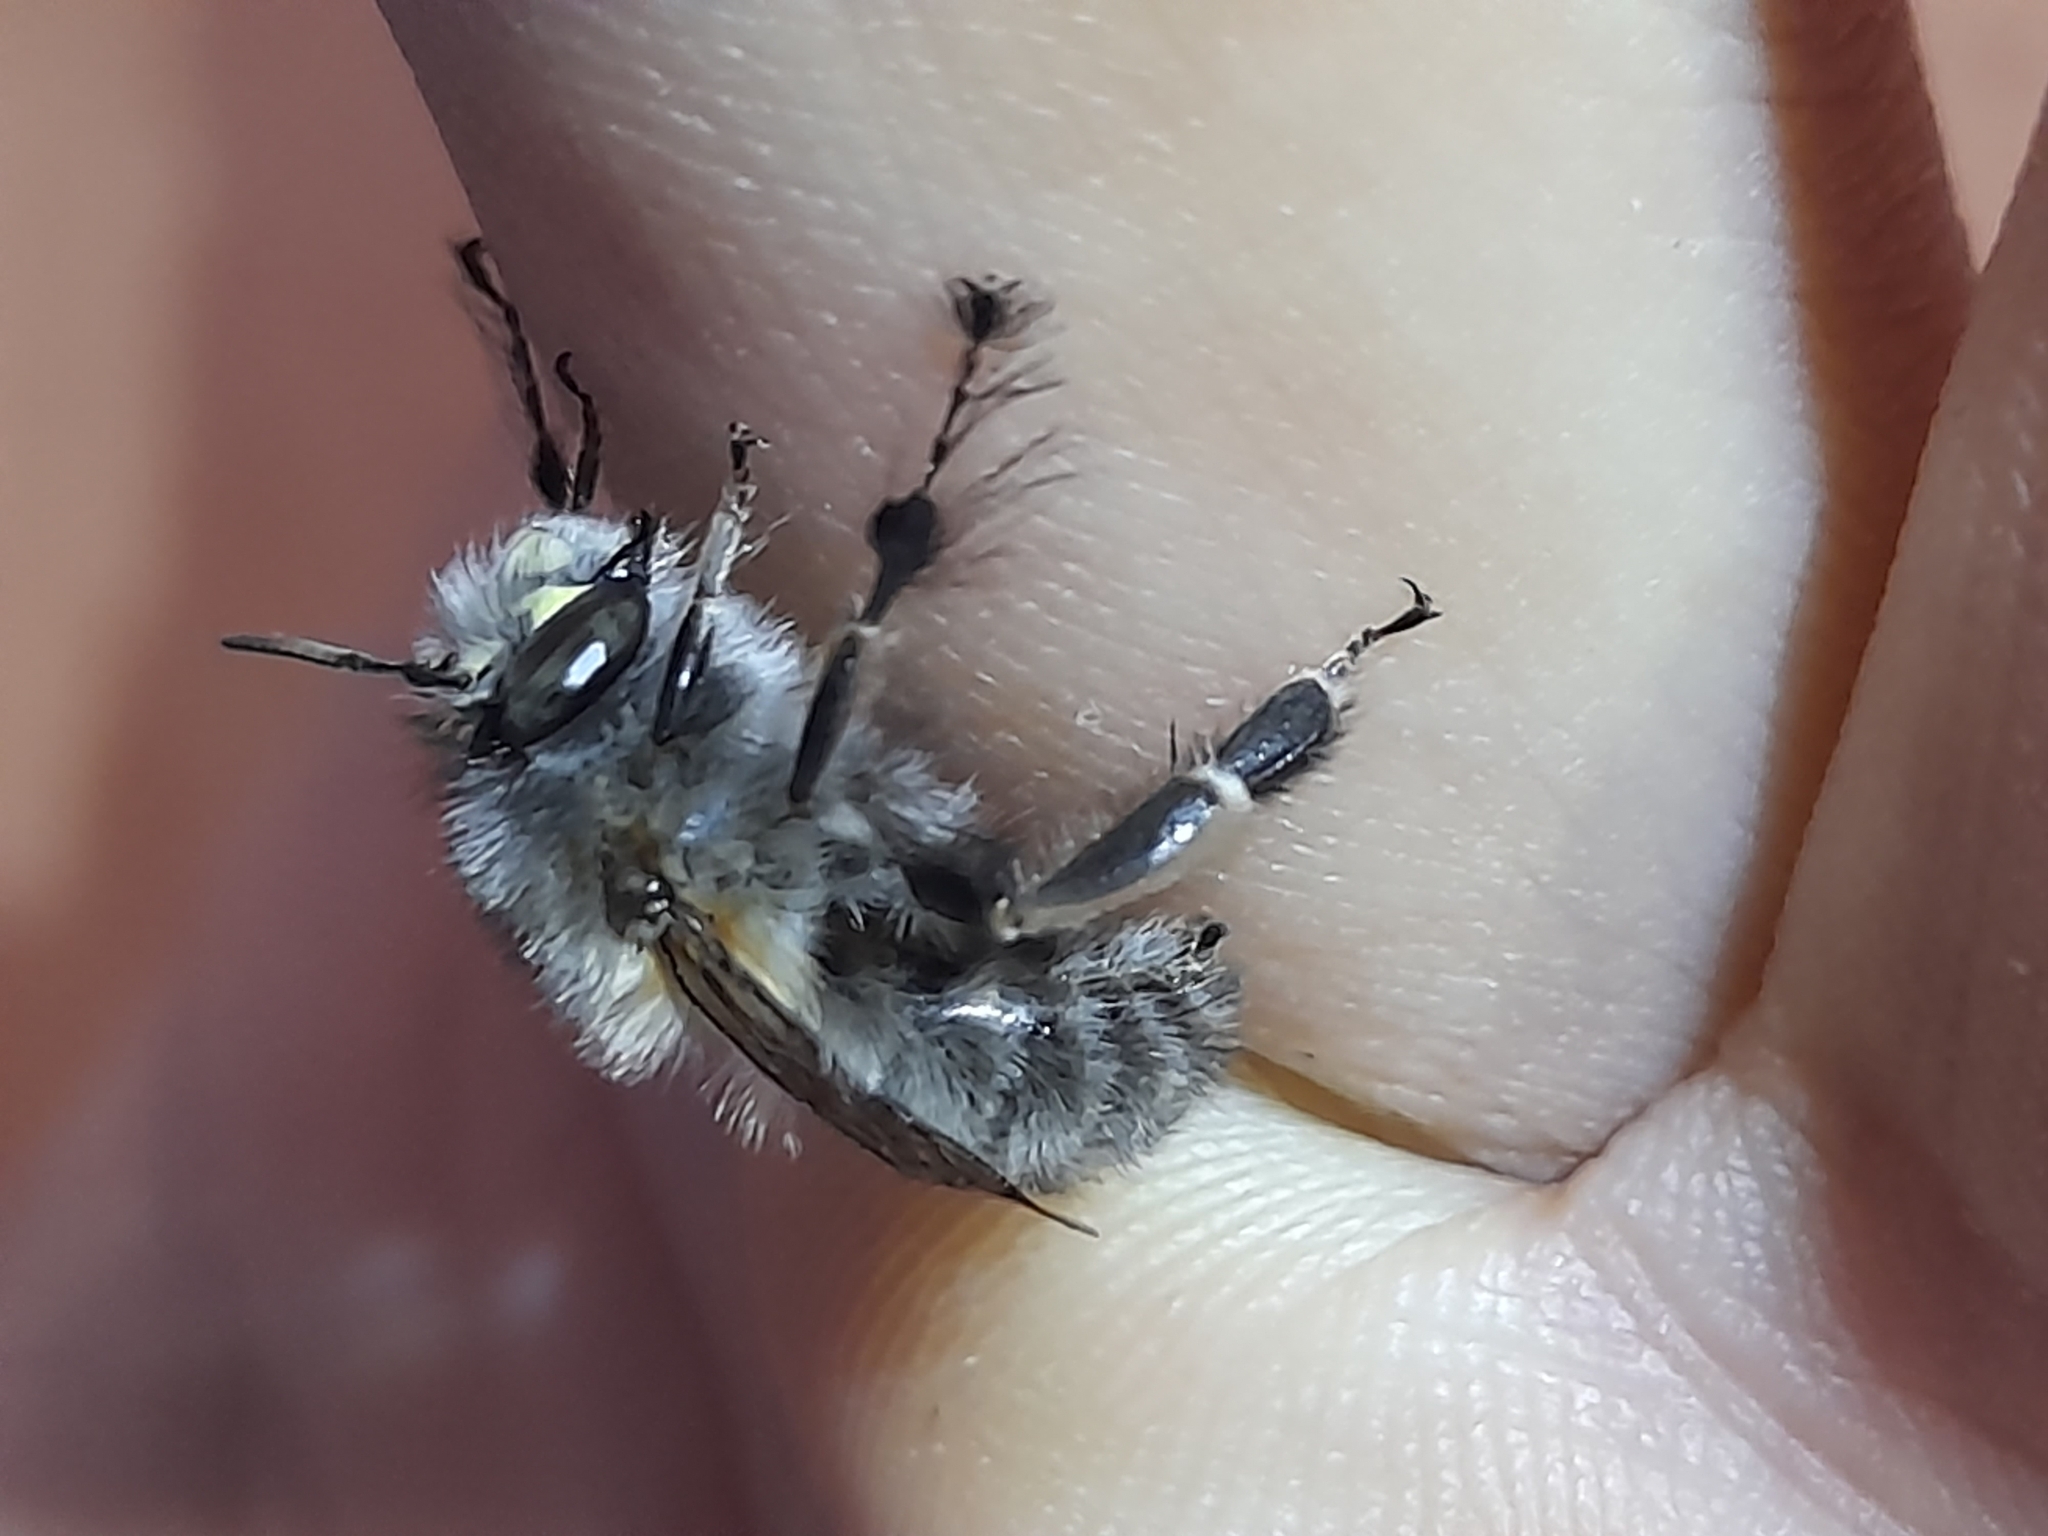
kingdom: Animalia
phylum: Arthropoda
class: Insecta
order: Hymenoptera
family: Apidae
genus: Anthophora
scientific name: Anthophora plumipes
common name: Hairy-footed flower bee
